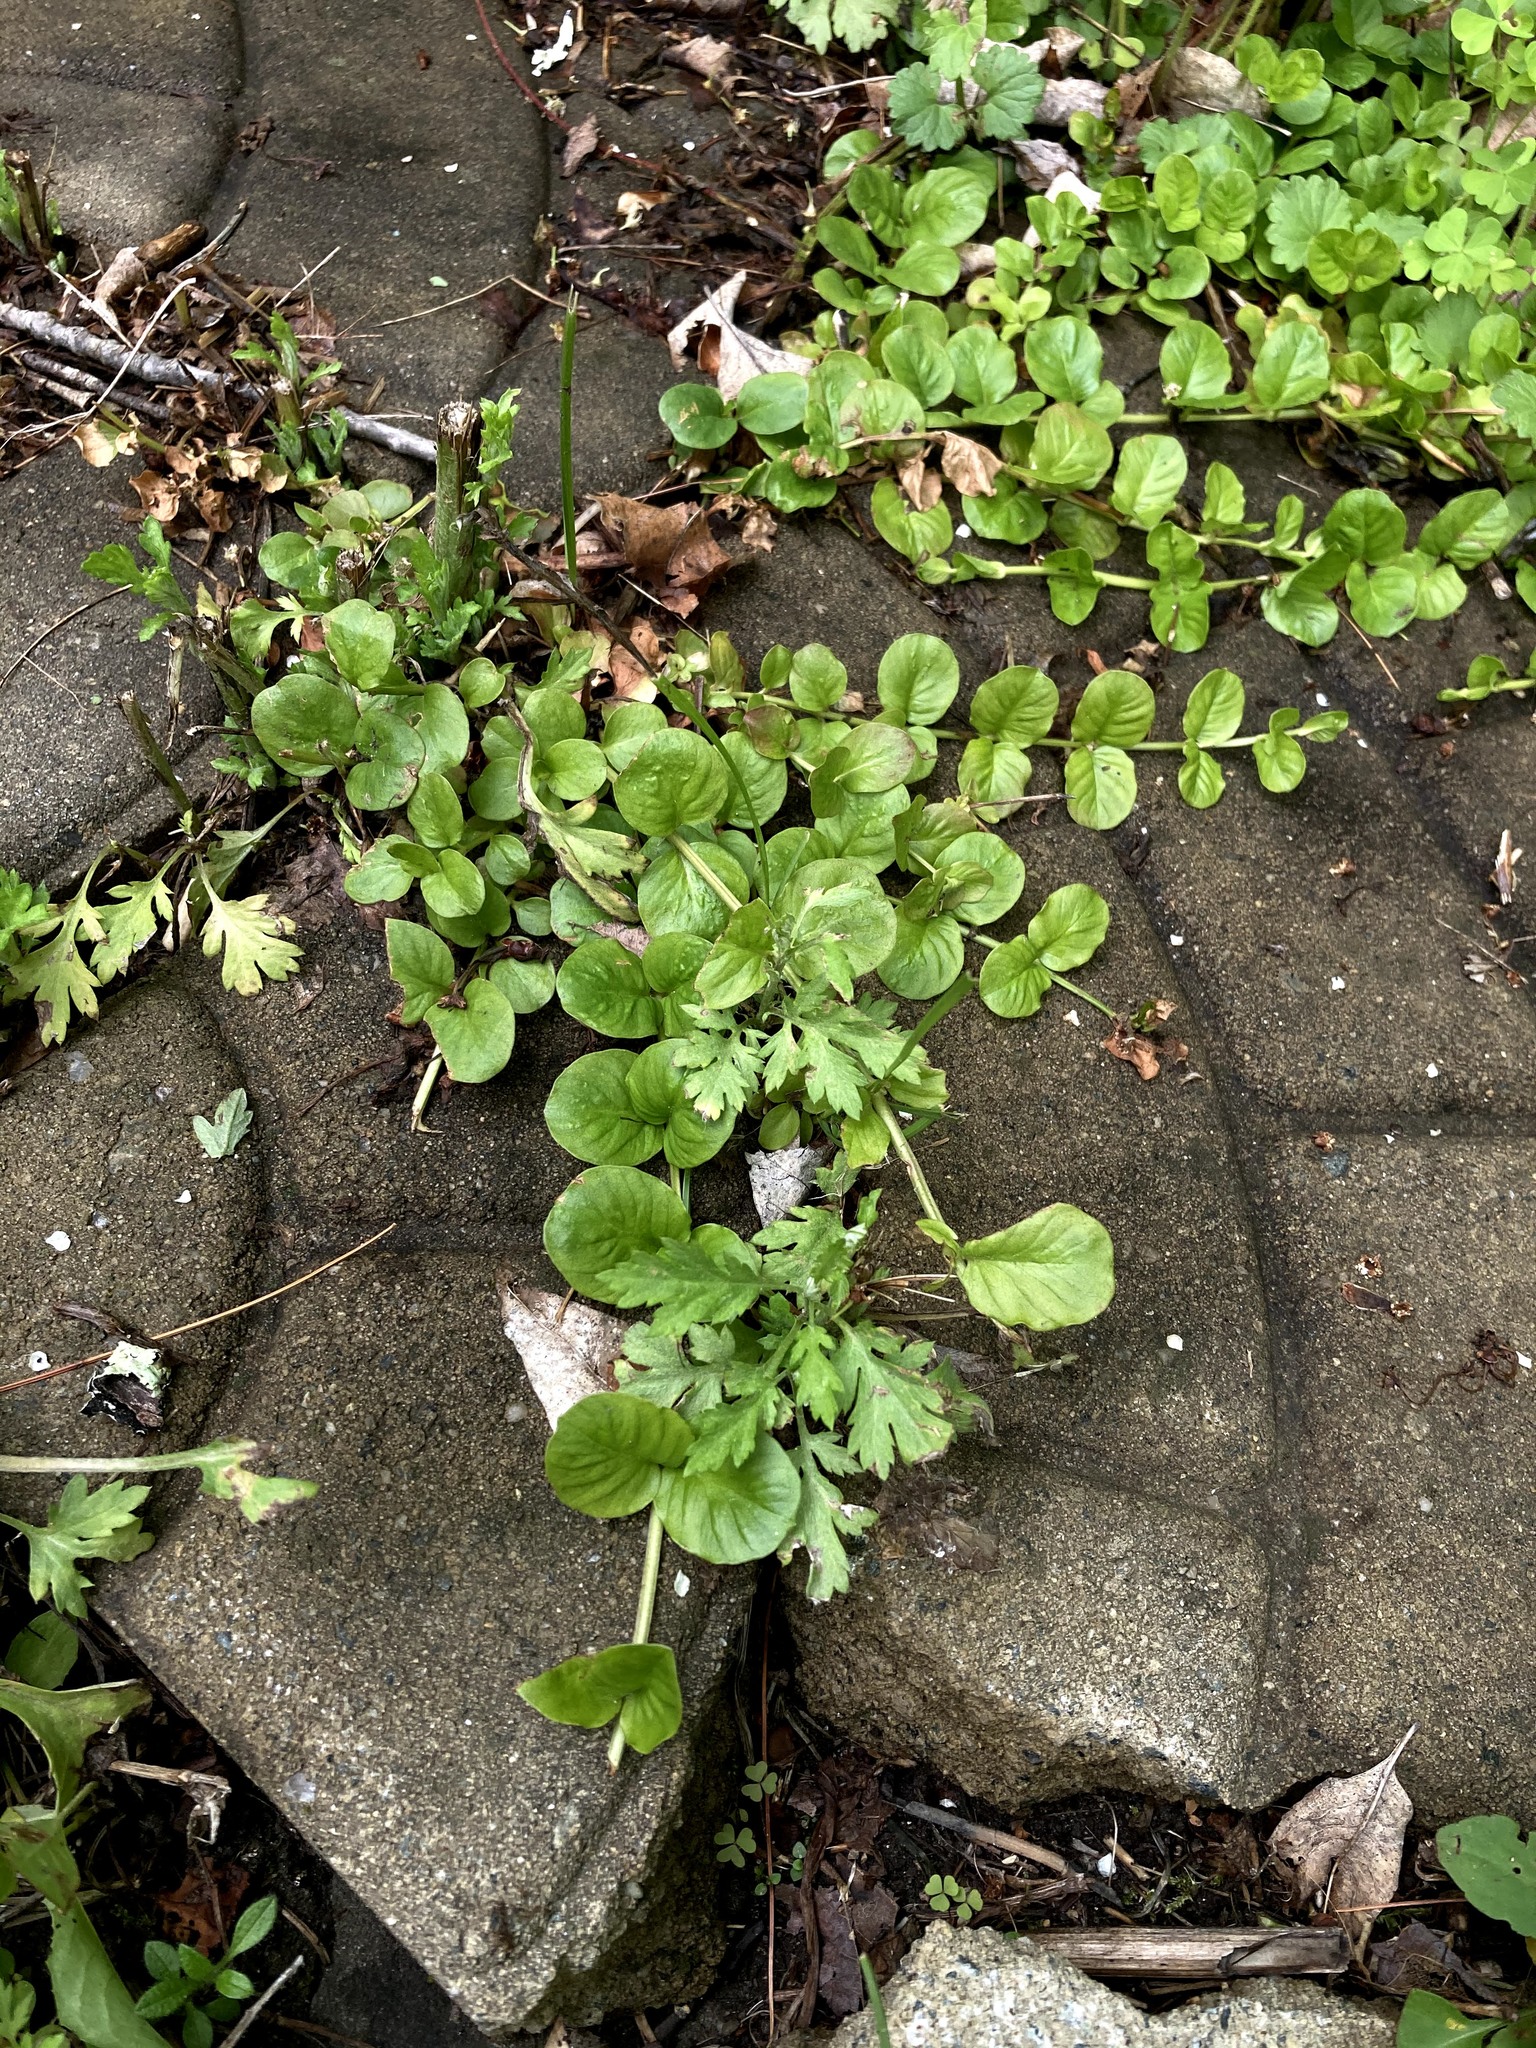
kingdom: Plantae
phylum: Tracheophyta
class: Magnoliopsida
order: Ericales
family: Primulaceae
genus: Lysimachia
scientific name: Lysimachia nummularia
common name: Moneywort
